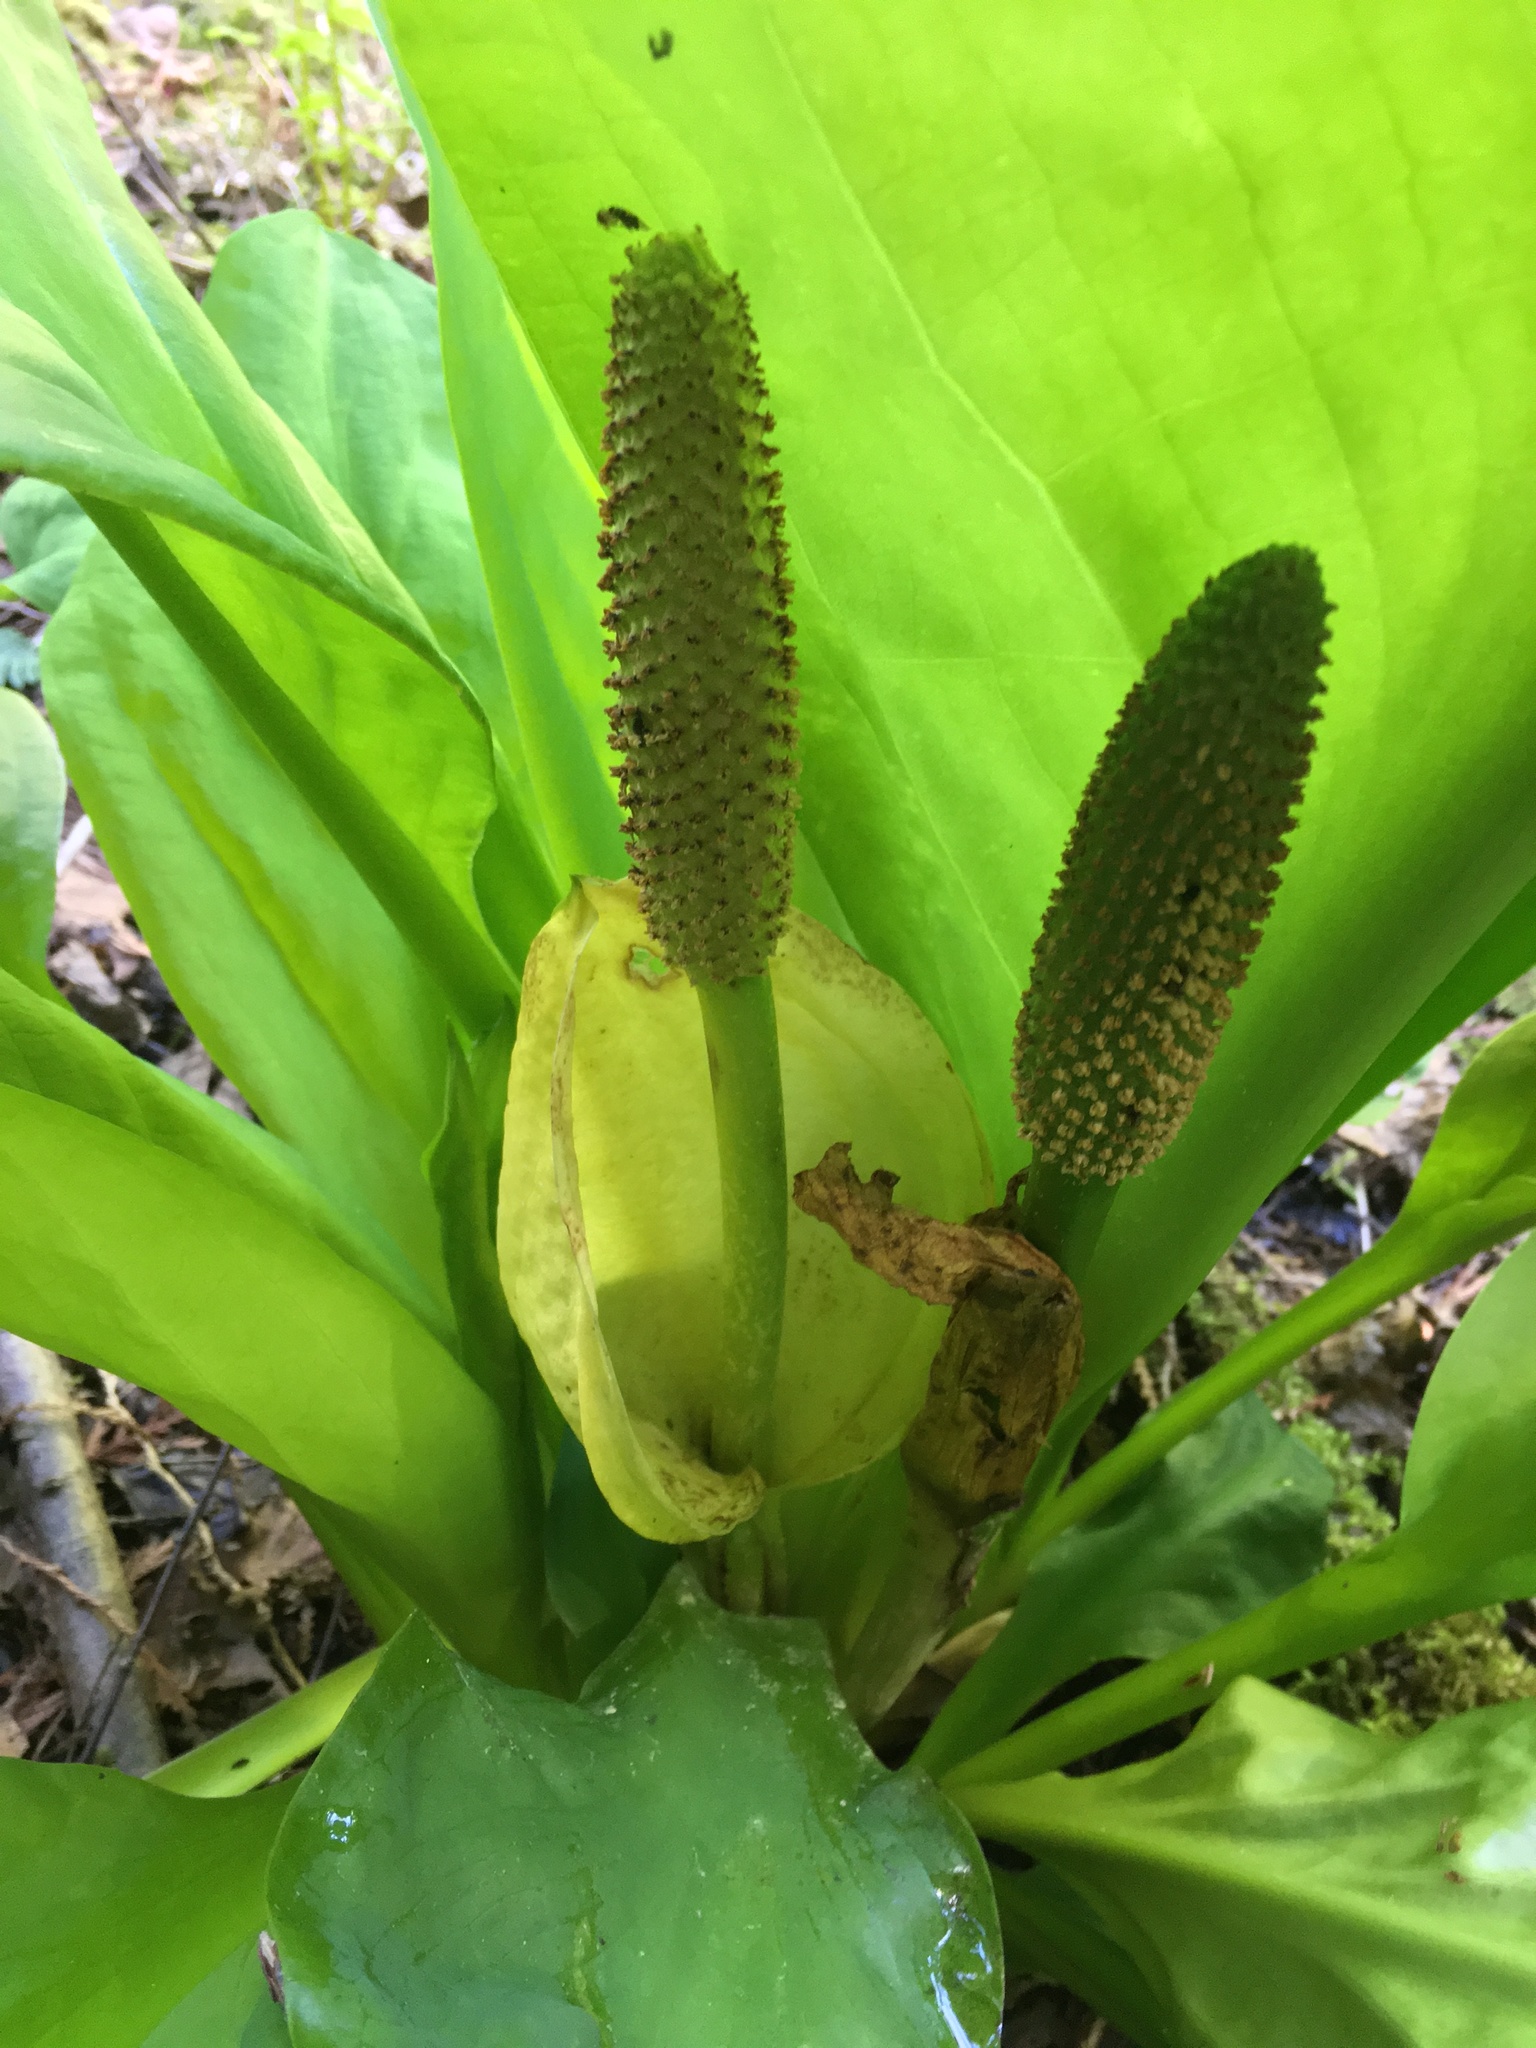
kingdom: Plantae
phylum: Tracheophyta
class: Liliopsida
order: Alismatales
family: Araceae
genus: Lysichiton
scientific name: Lysichiton americanus
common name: American skunk cabbage
